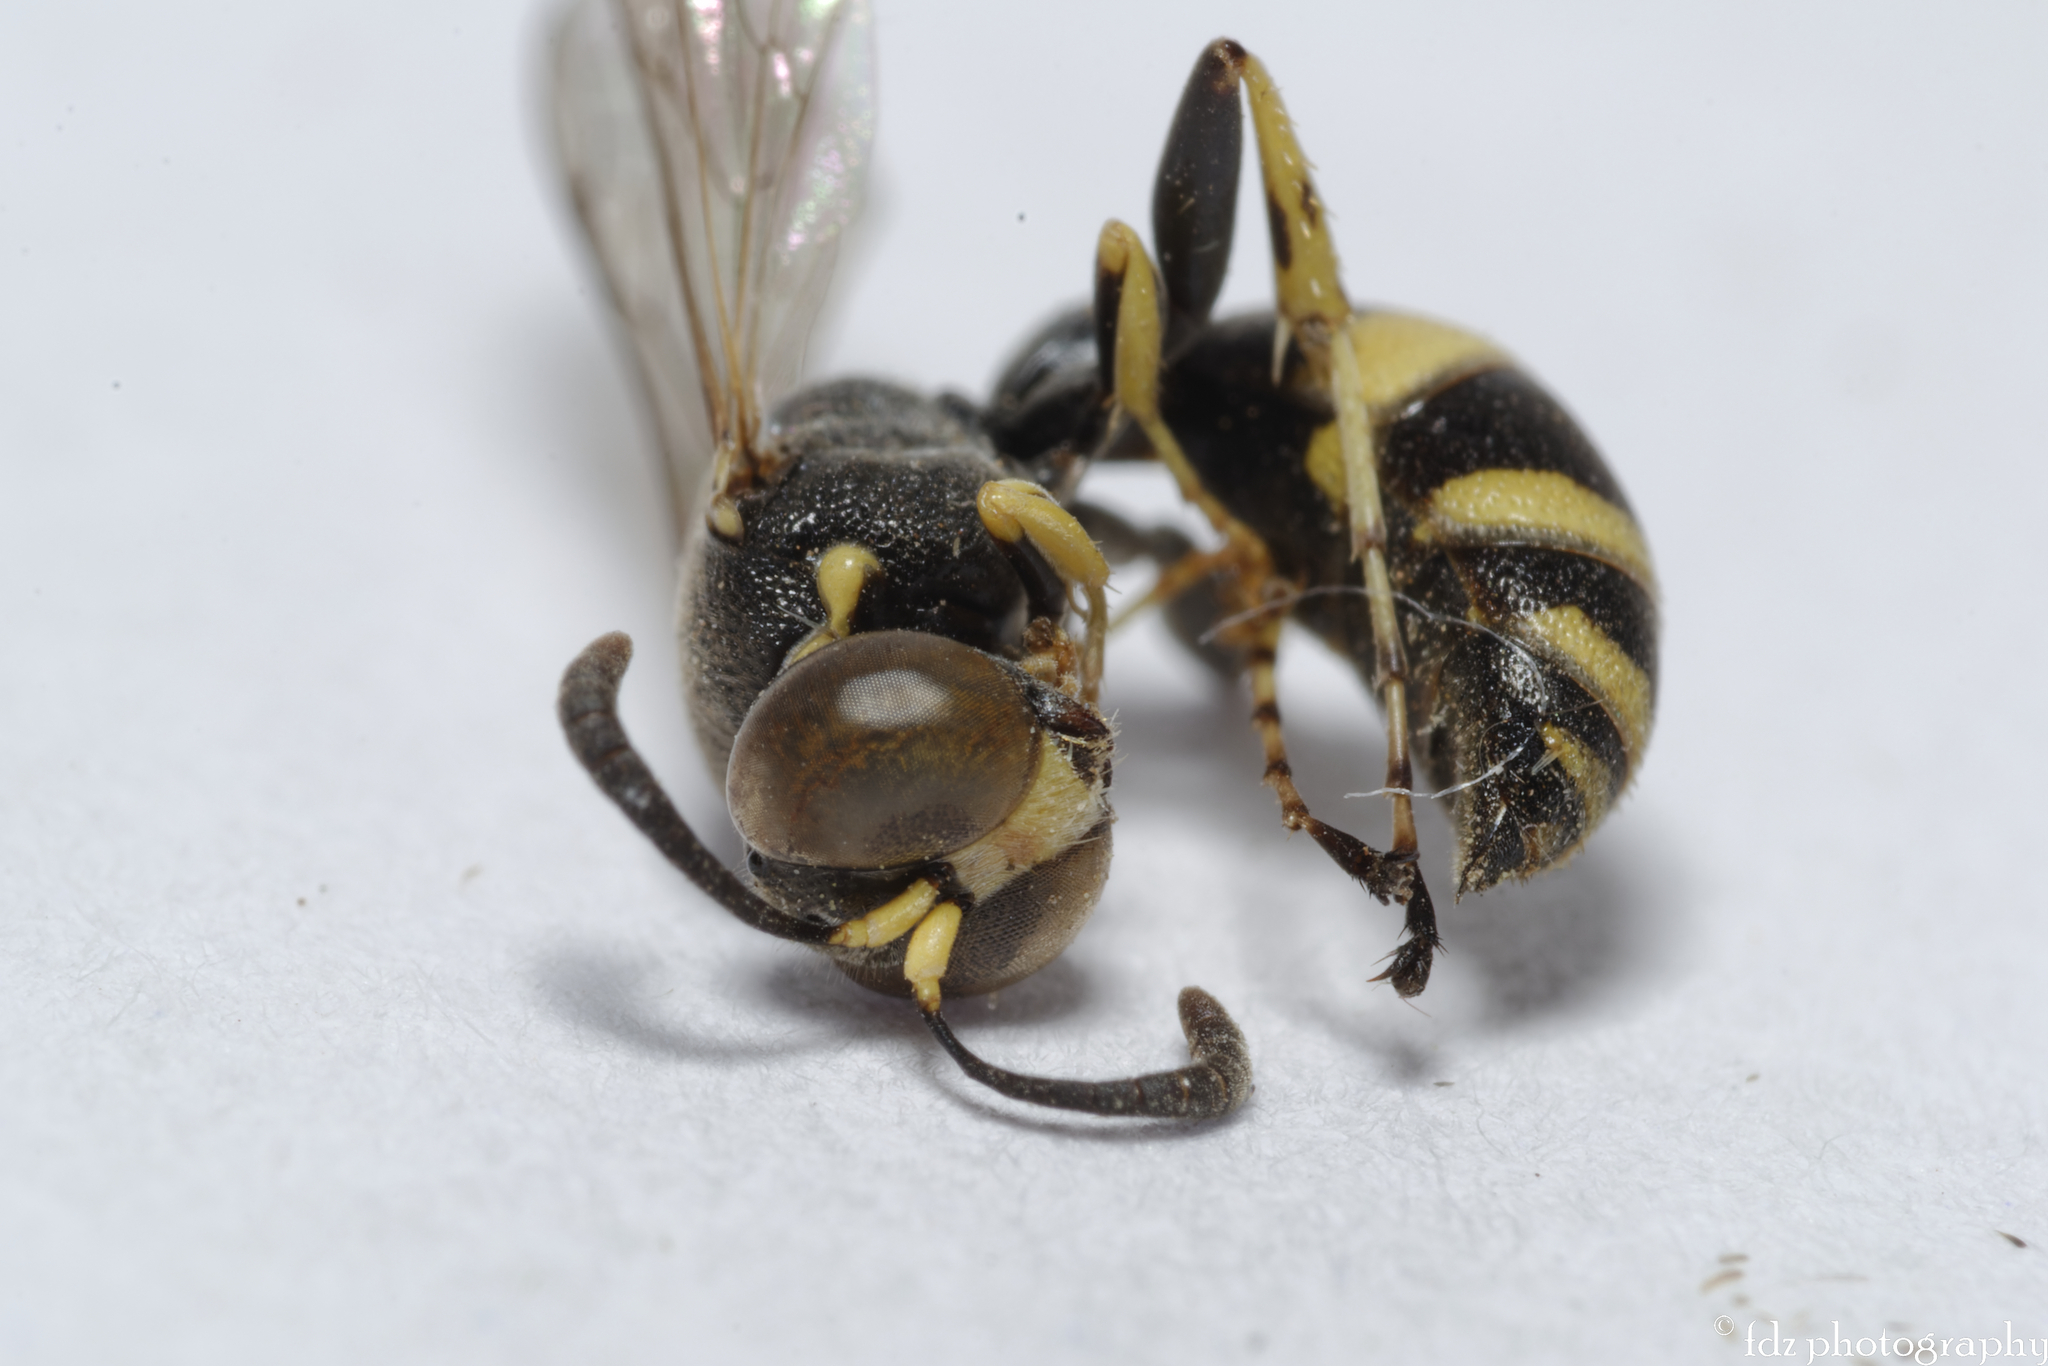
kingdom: Animalia
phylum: Arthropoda
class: Insecta
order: Hymenoptera
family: Crabronidae
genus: Ammatomus
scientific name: Ammatomus coarctatus
